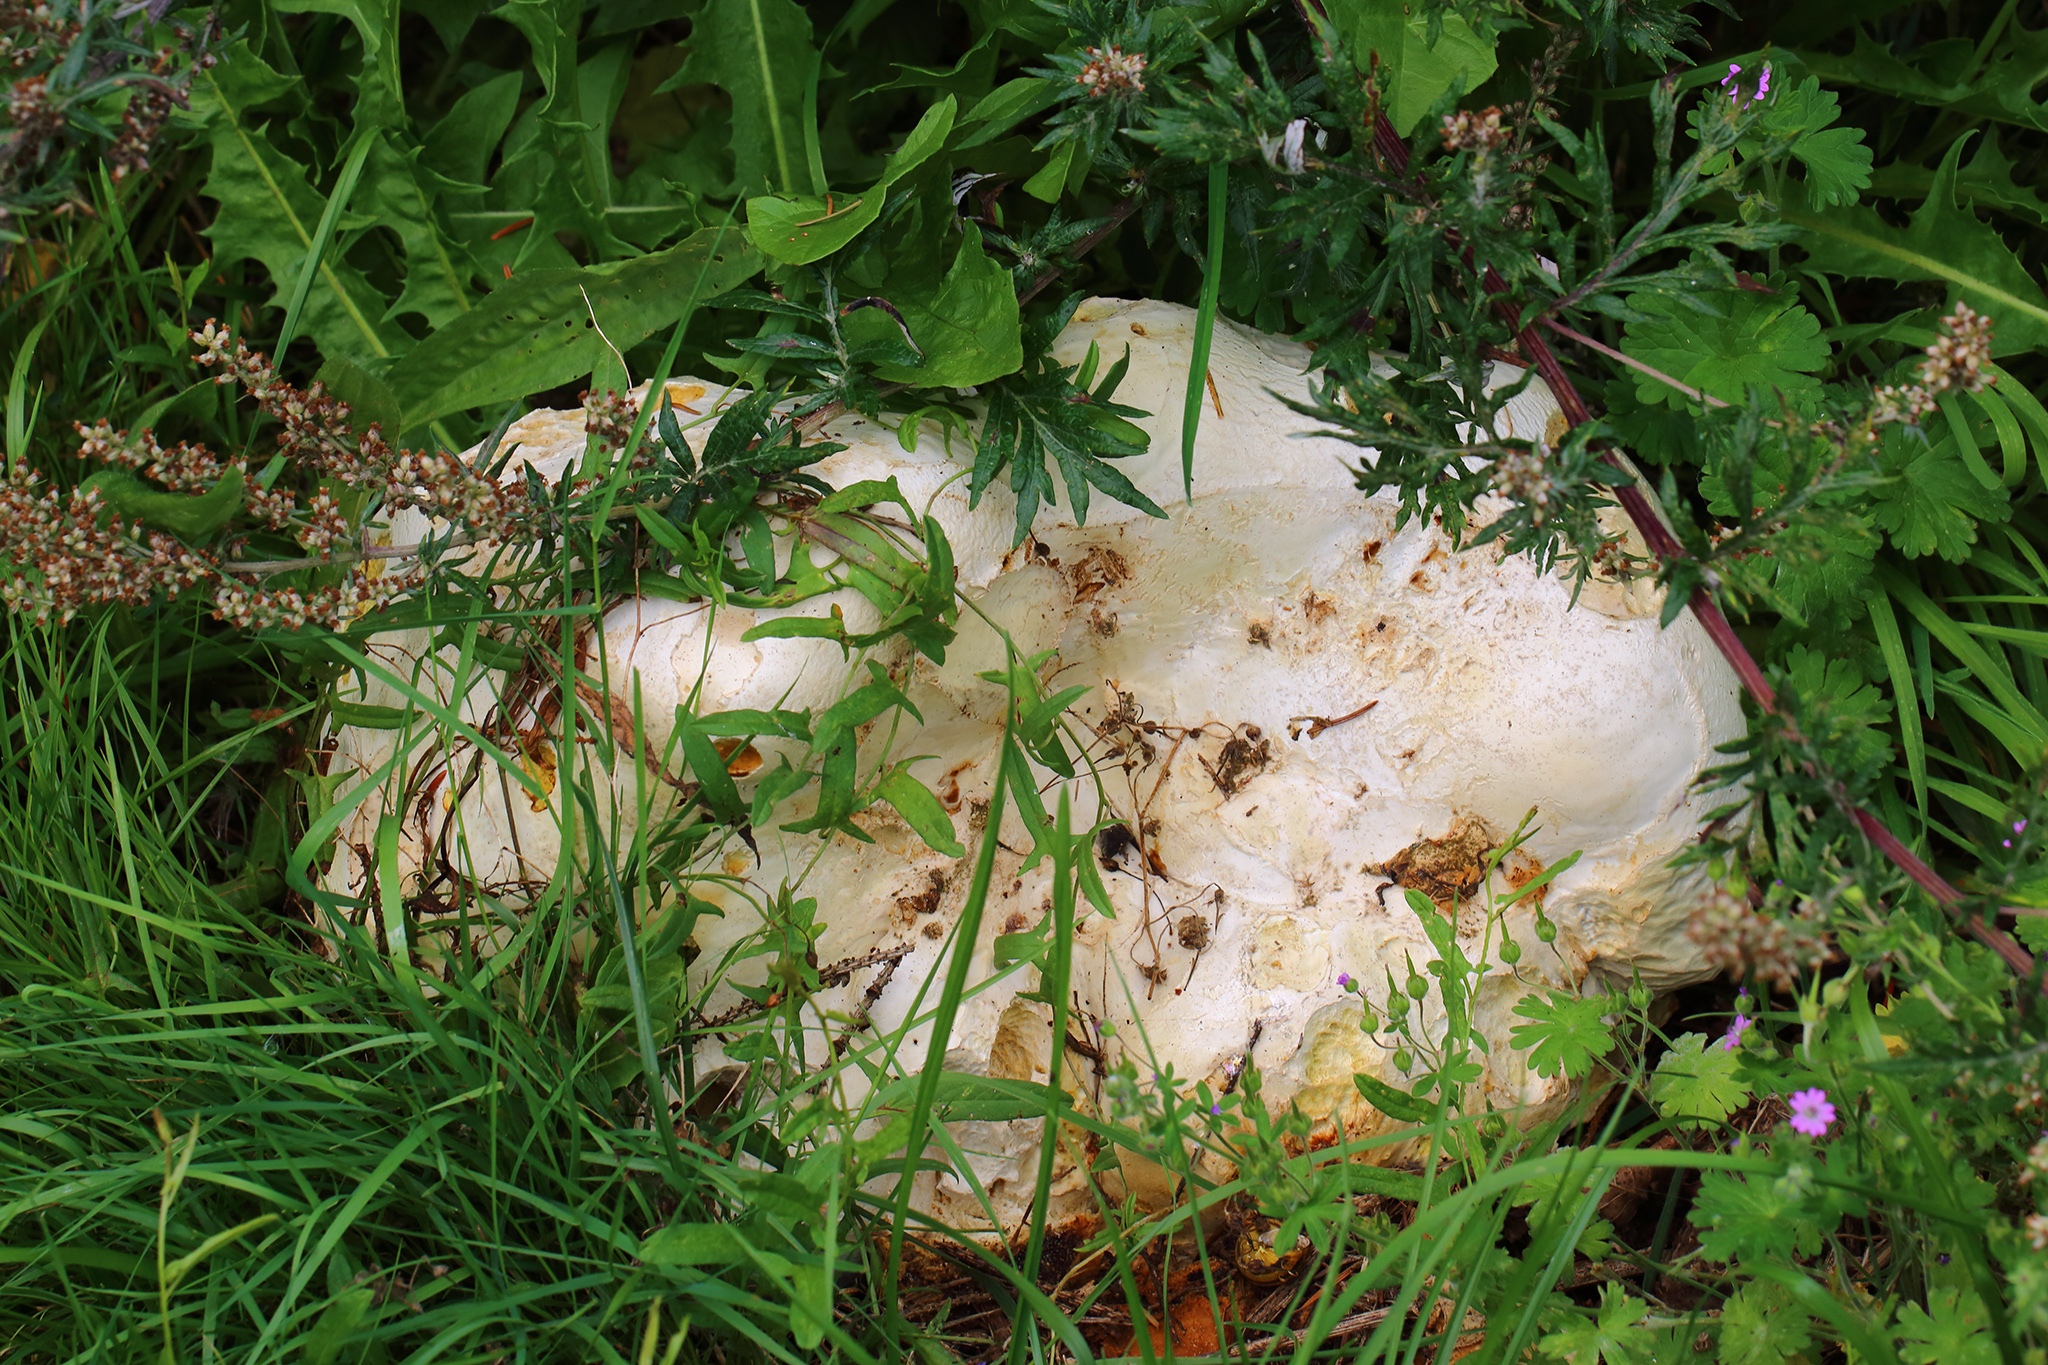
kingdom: Fungi
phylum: Basidiomycota
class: Agaricomycetes
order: Agaricales
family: Lycoperdaceae
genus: Calvatia
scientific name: Calvatia gigantea
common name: Giant puffball
